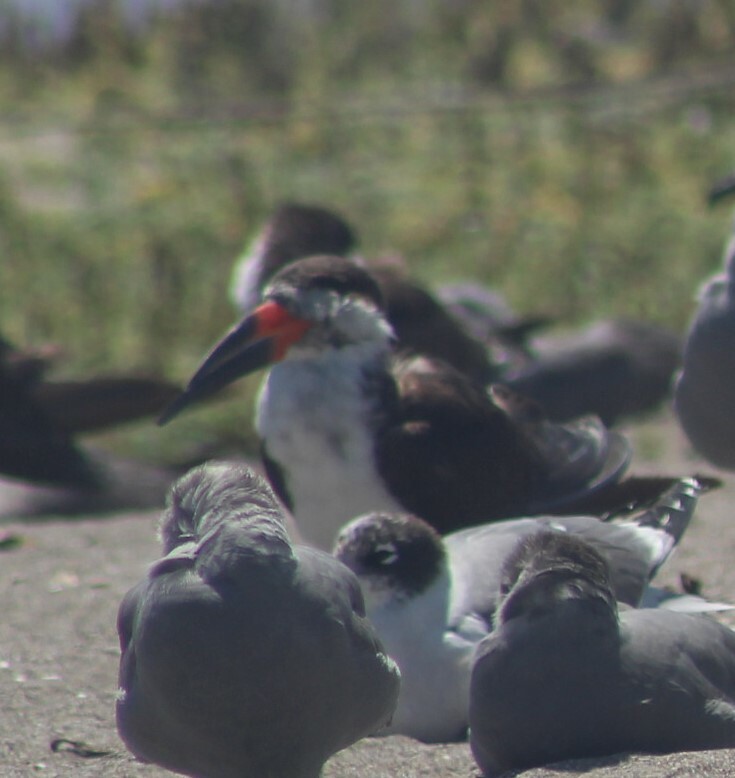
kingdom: Animalia
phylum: Chordata
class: Aves
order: Charadriiformes
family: Laridae
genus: Rynchops
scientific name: Rynchops niger
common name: Black skimmer
